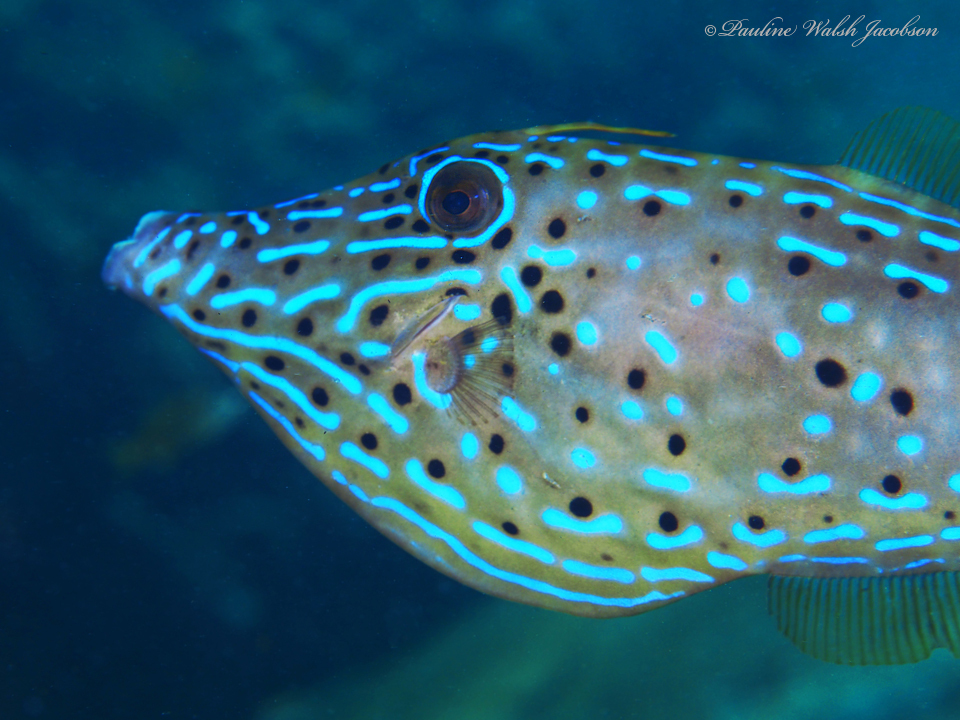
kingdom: Animalia
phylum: Chordata
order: Tetraodontiformes
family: Monacanthidae
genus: Aluterus
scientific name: Aluterus scriptus
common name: Scribbled leatherjacket filefish
